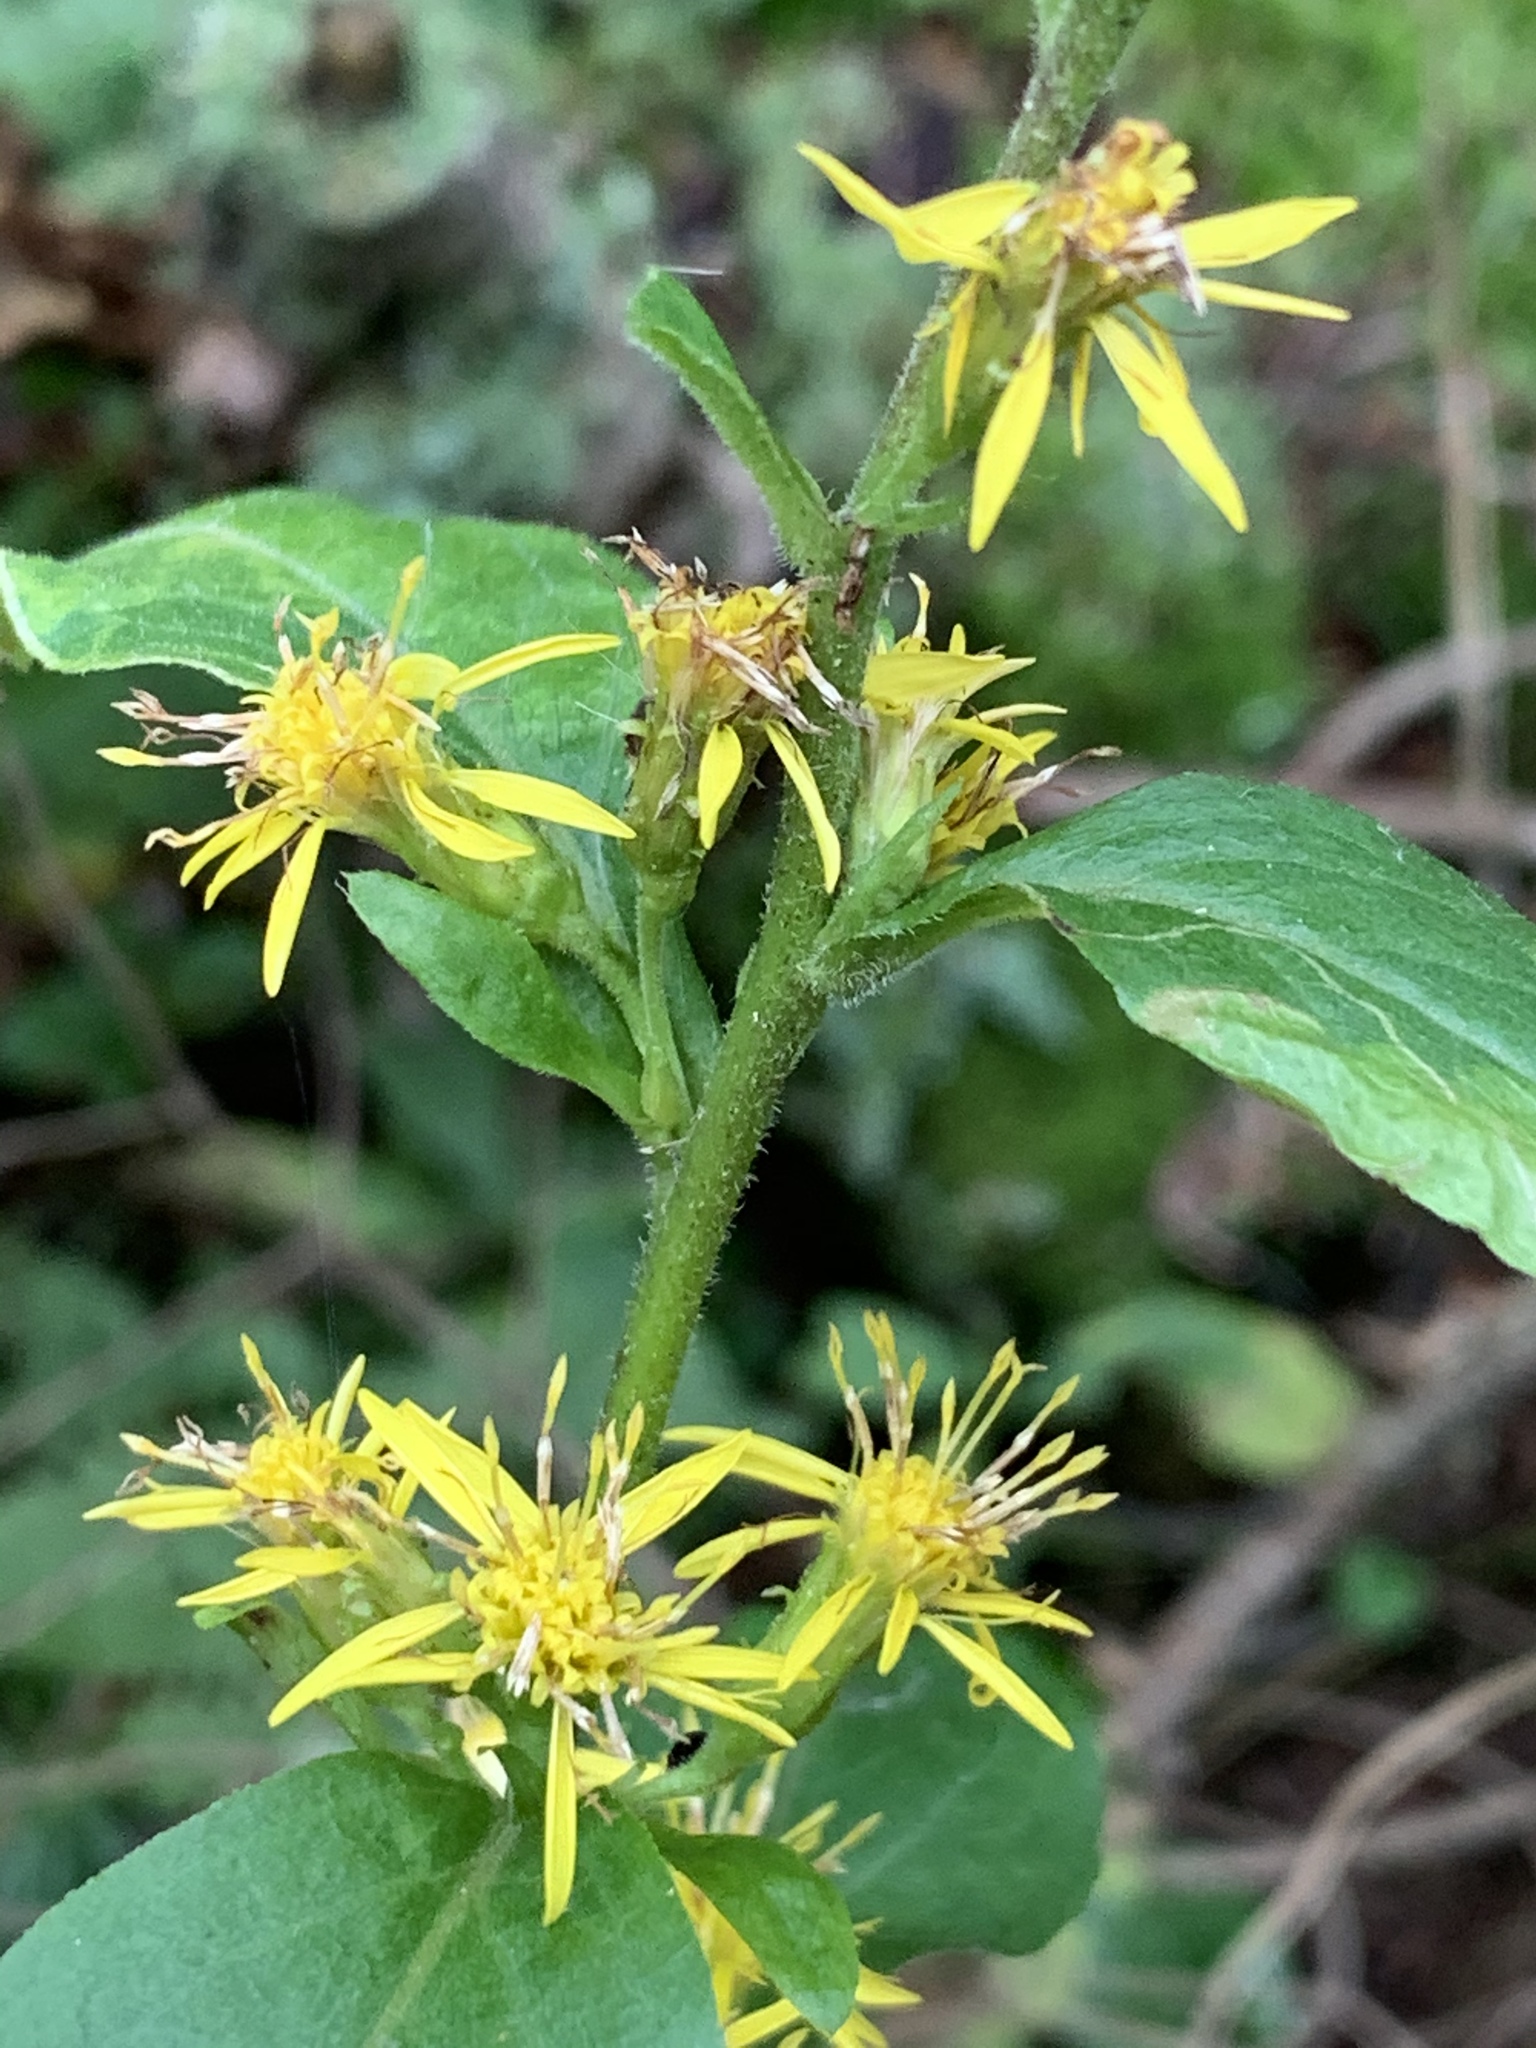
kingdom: Plantae
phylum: Tracheophyta
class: Magnoliopsida
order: Asterales
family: Asteraceae
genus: Solidago
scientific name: Solidago macrophylla
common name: Large-leaved goldenrod
